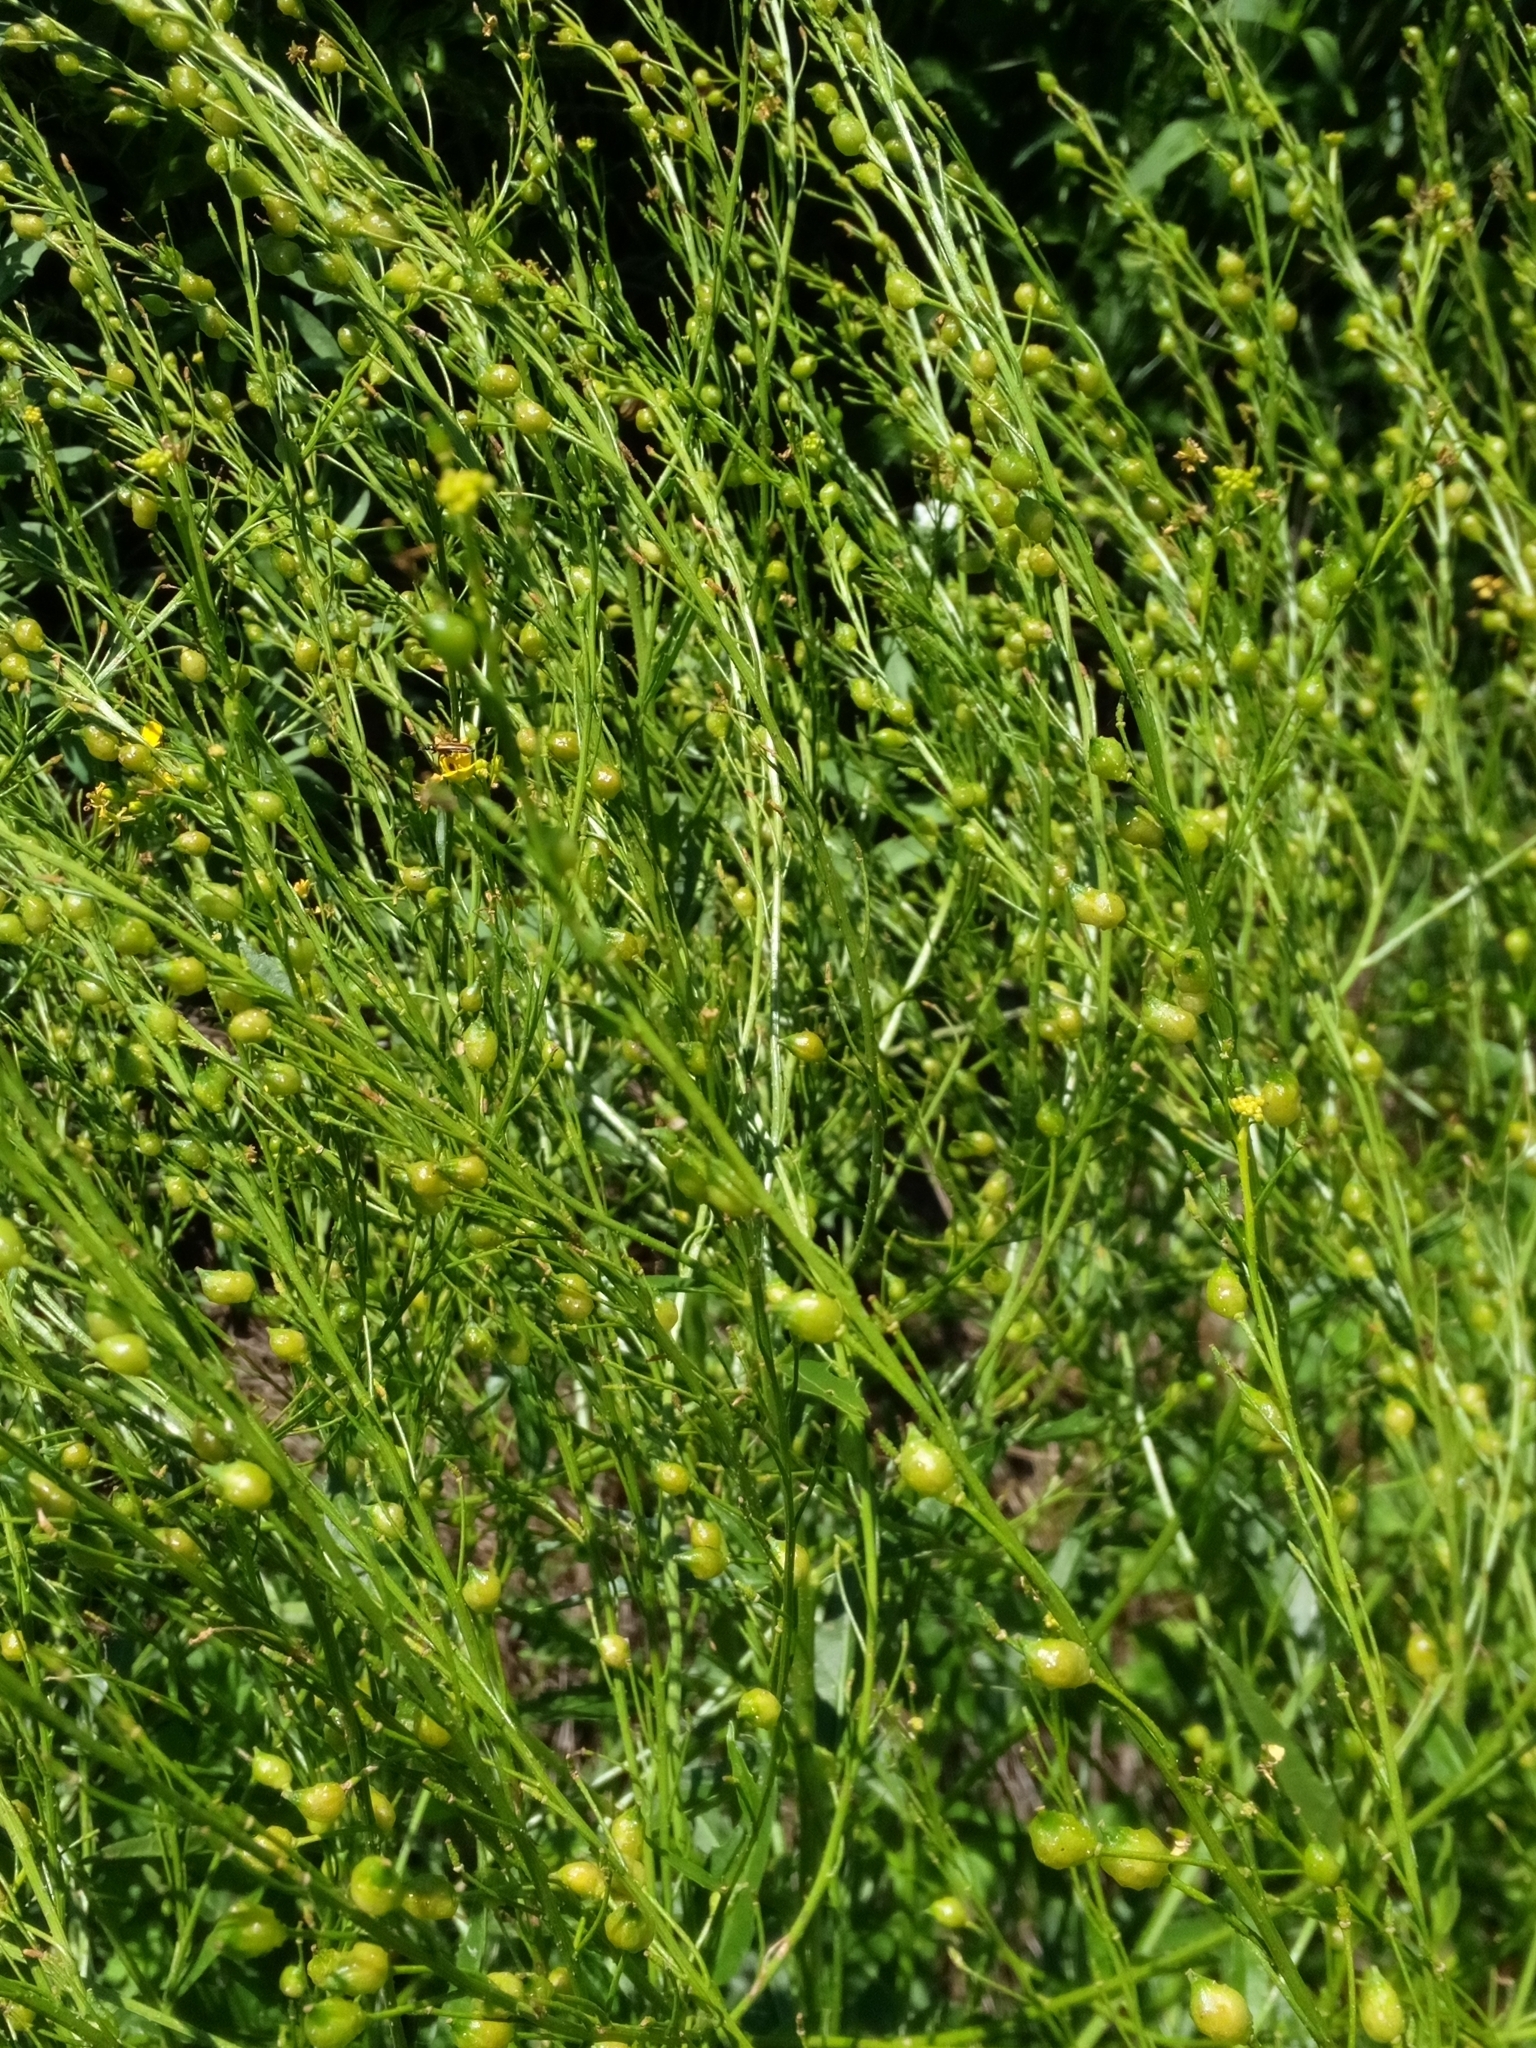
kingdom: Plantae
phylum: Tracheophyta
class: Magnoliopsida
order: Brassicales
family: Brassicaceae
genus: Bunias
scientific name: Bunias orientalis
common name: Warty-cabbage
